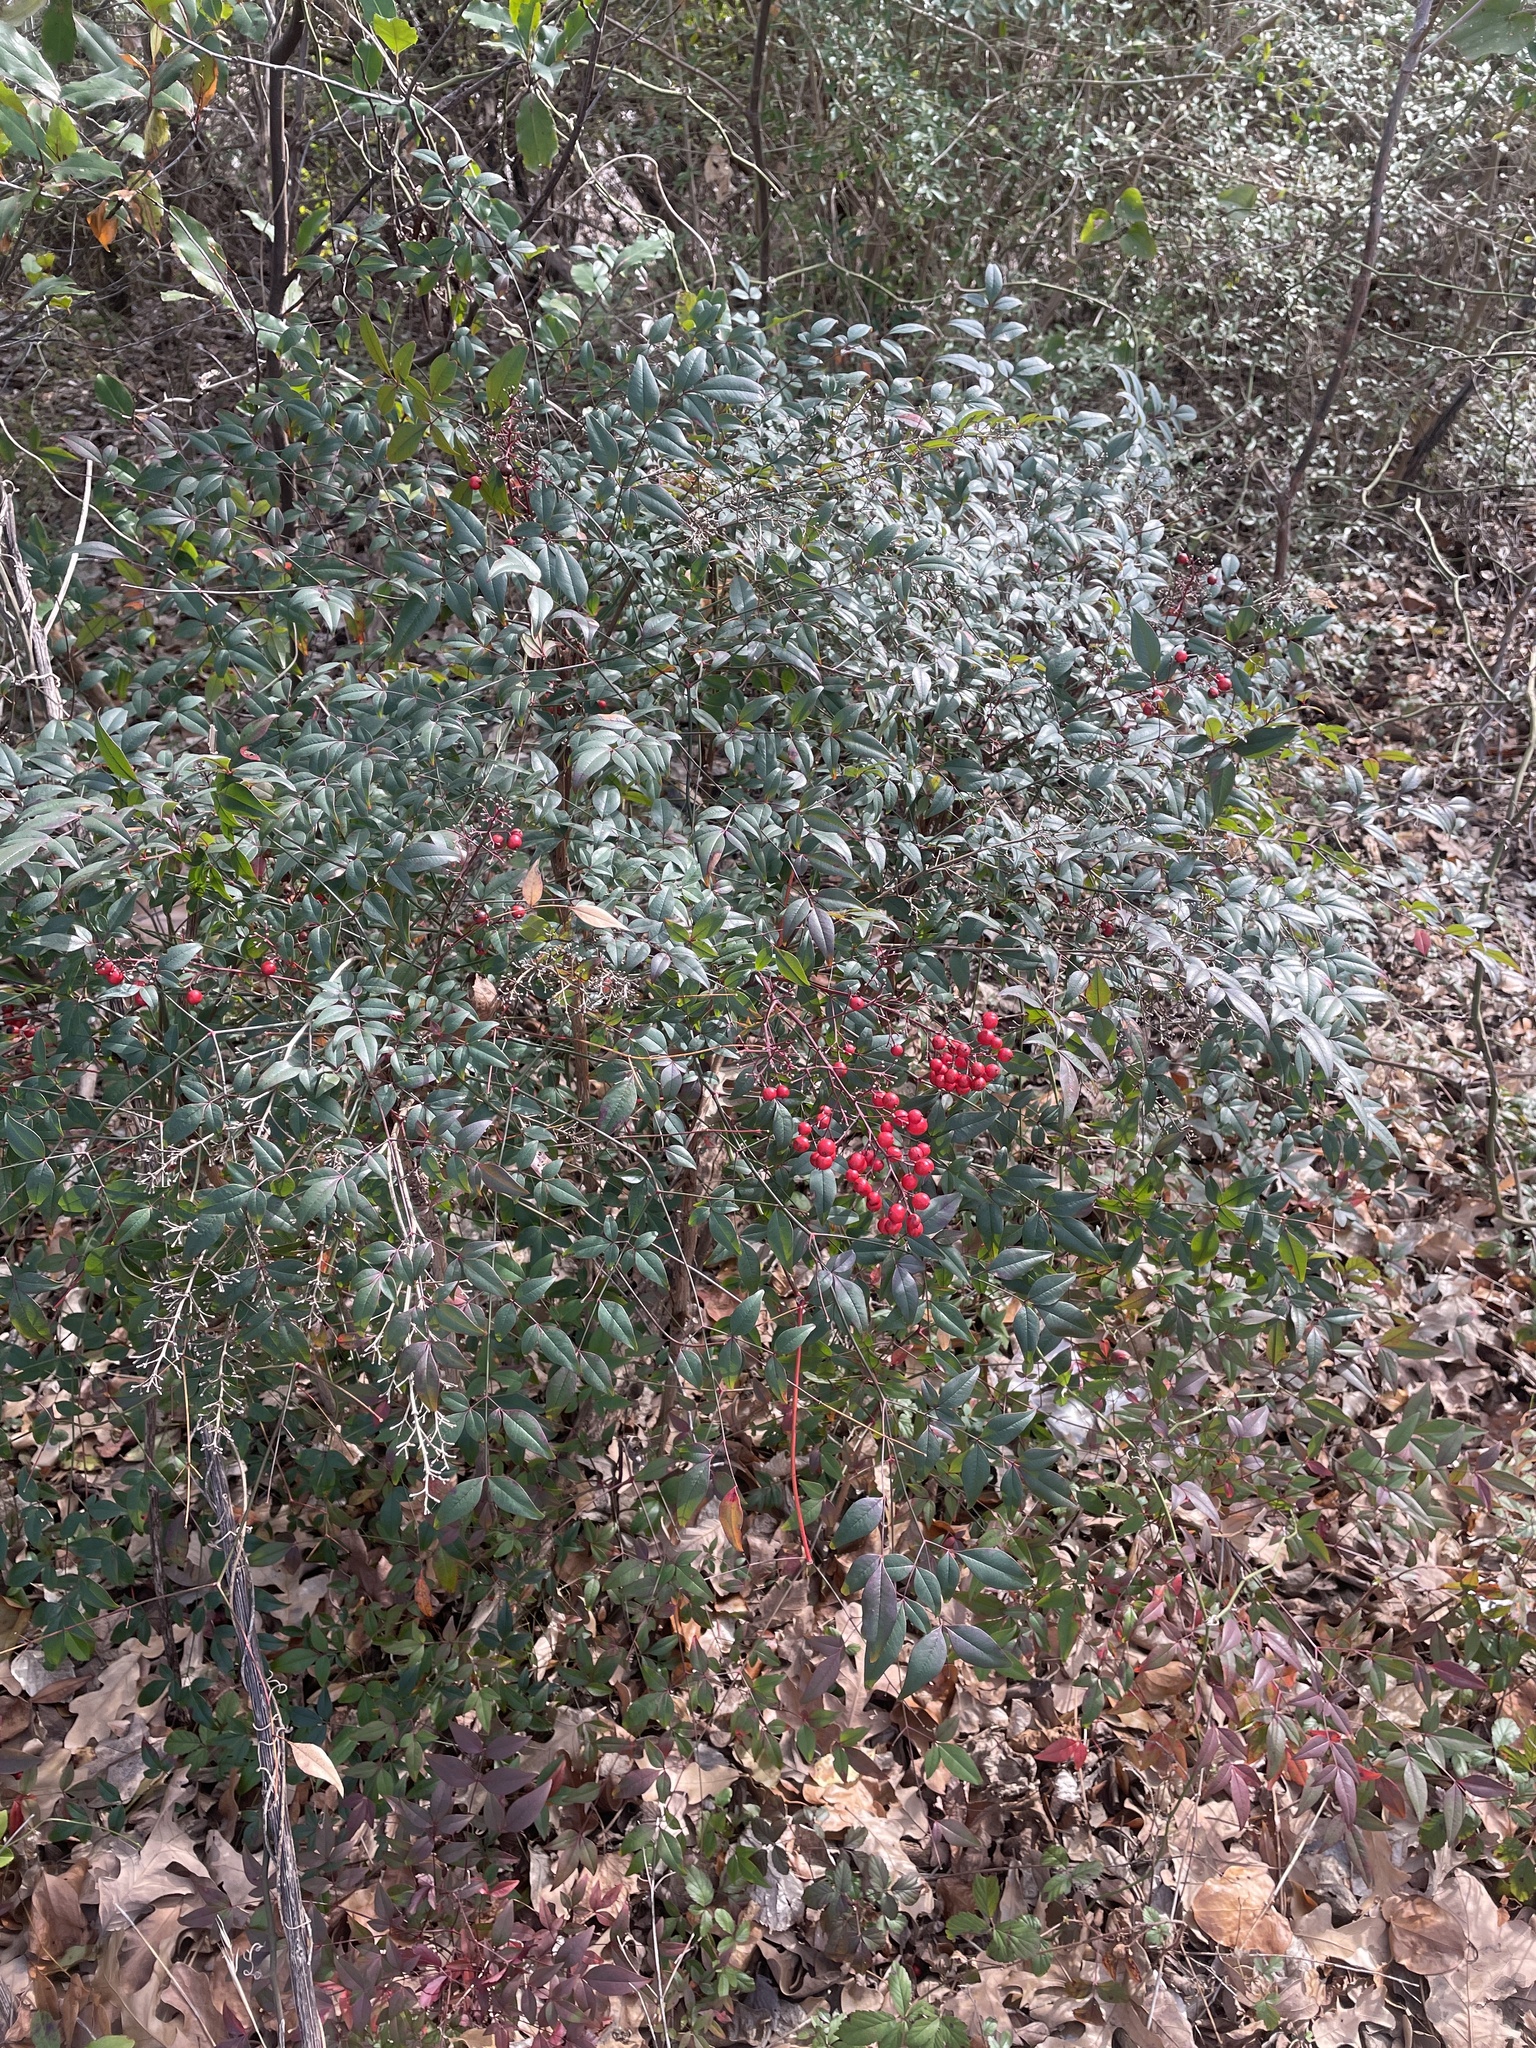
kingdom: Plantae
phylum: Tracheophyta
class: Magnoliopsida
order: Ranunculales
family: Berberidaceae
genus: Nandina
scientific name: Nandina domestica
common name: Sacred bamboo
